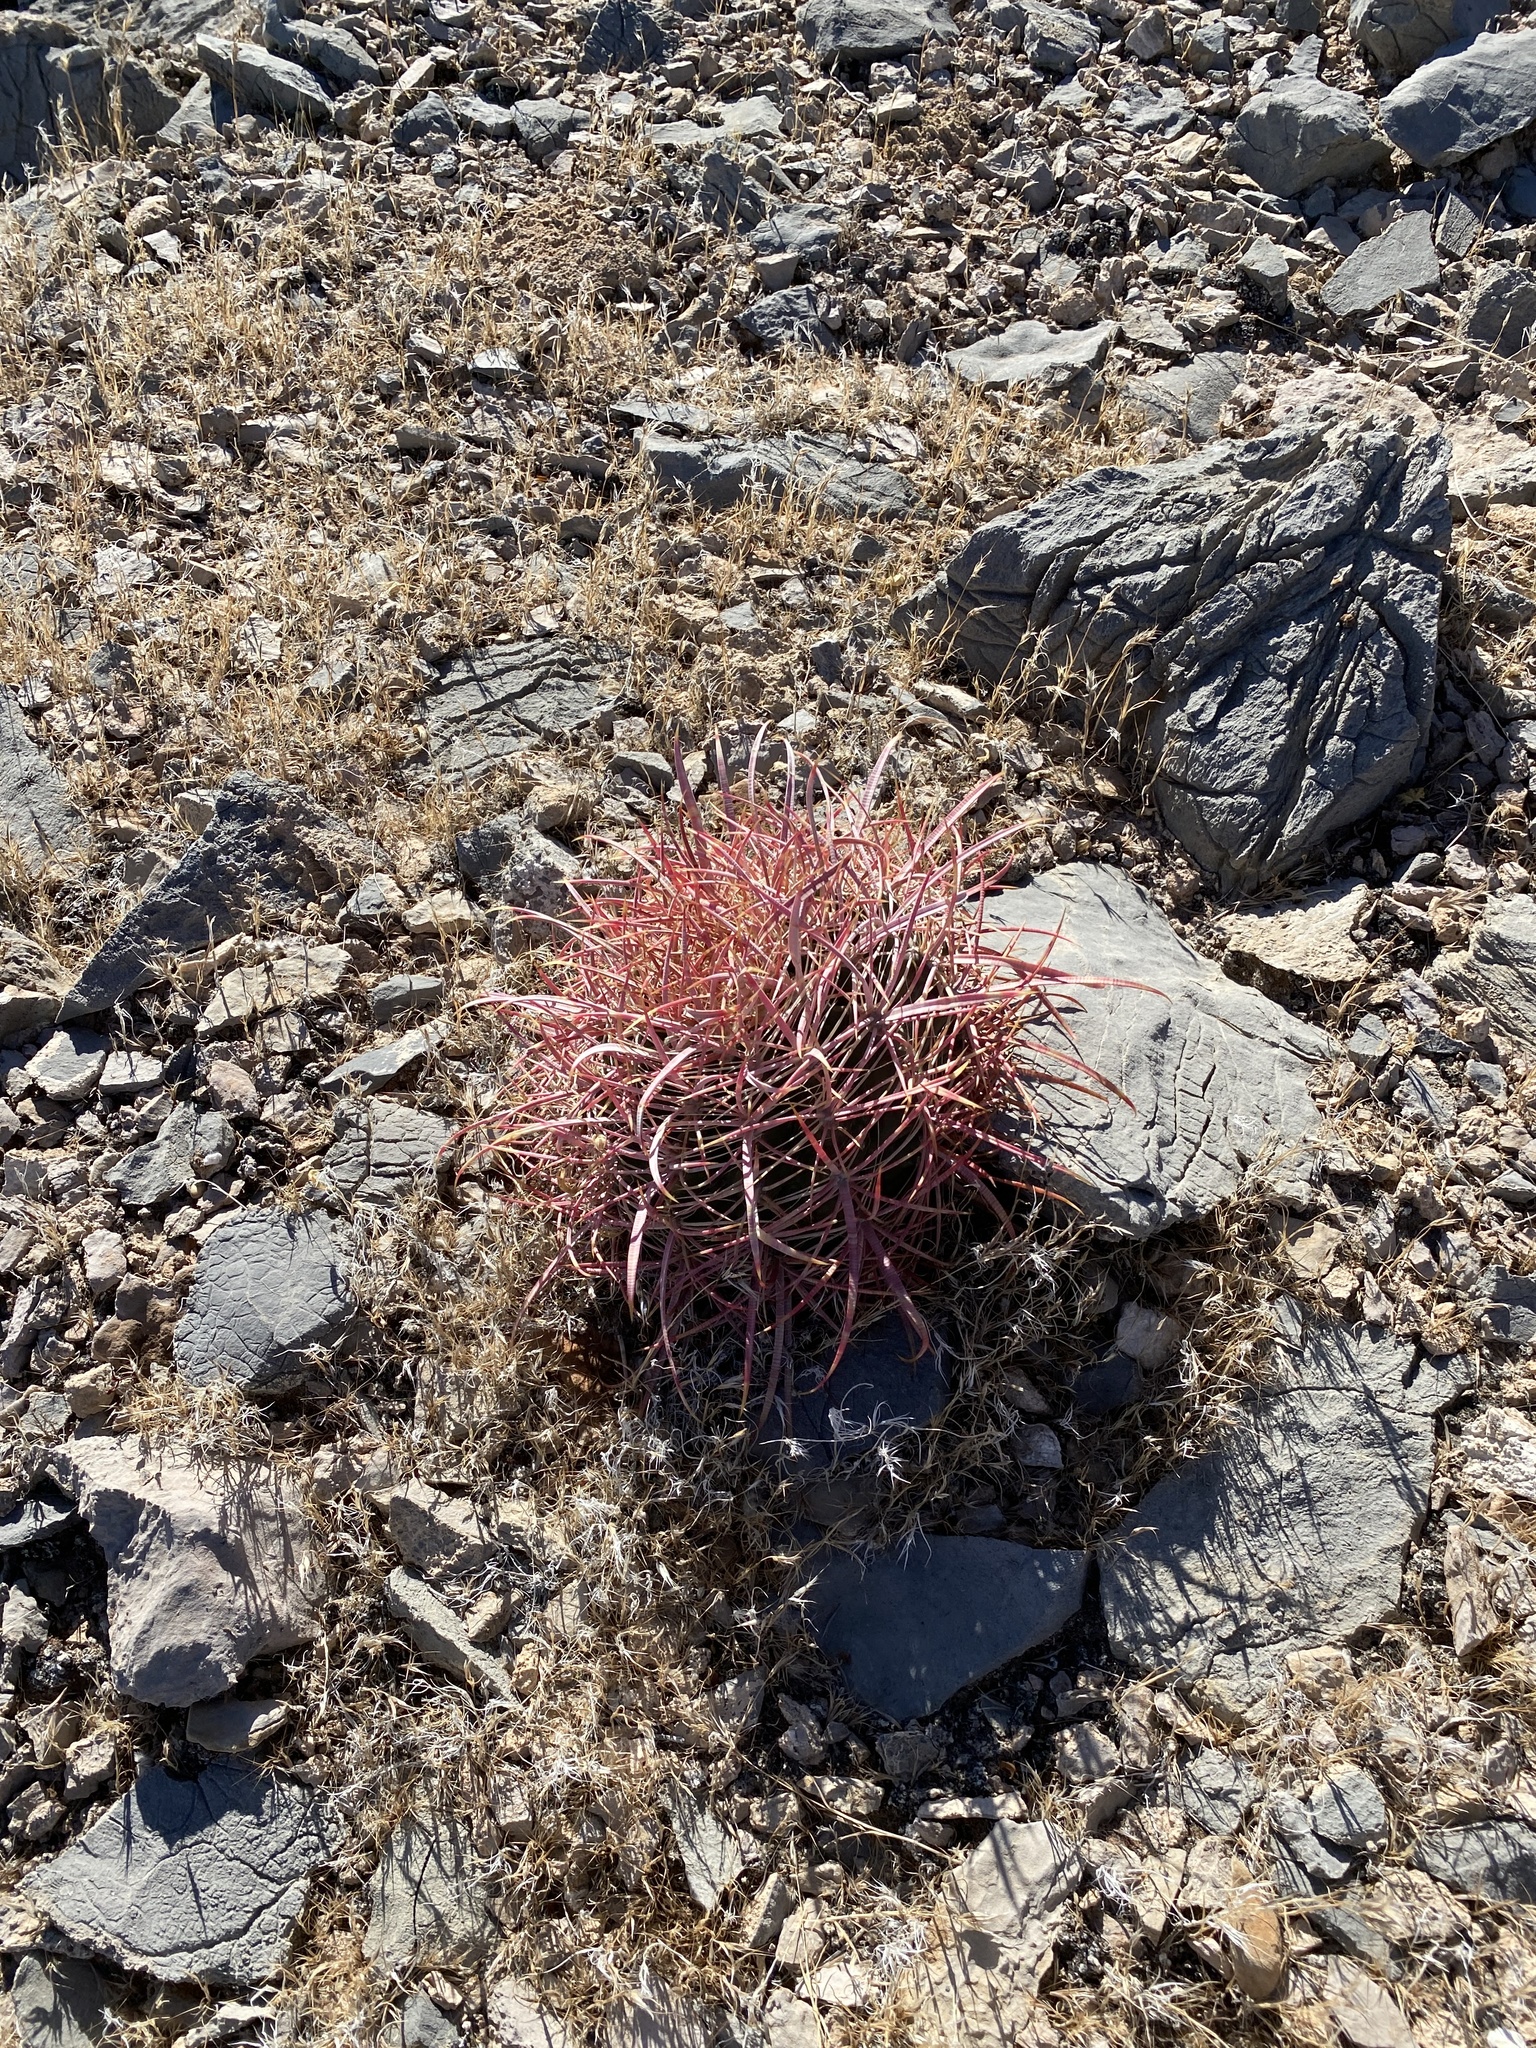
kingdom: Plantae
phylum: Tracheophyta
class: Magnoliopsida
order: Caryophyllales
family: Cactaceae
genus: Ferocactus
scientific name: Ferocactus cylindraceus
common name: California barrel cactus
